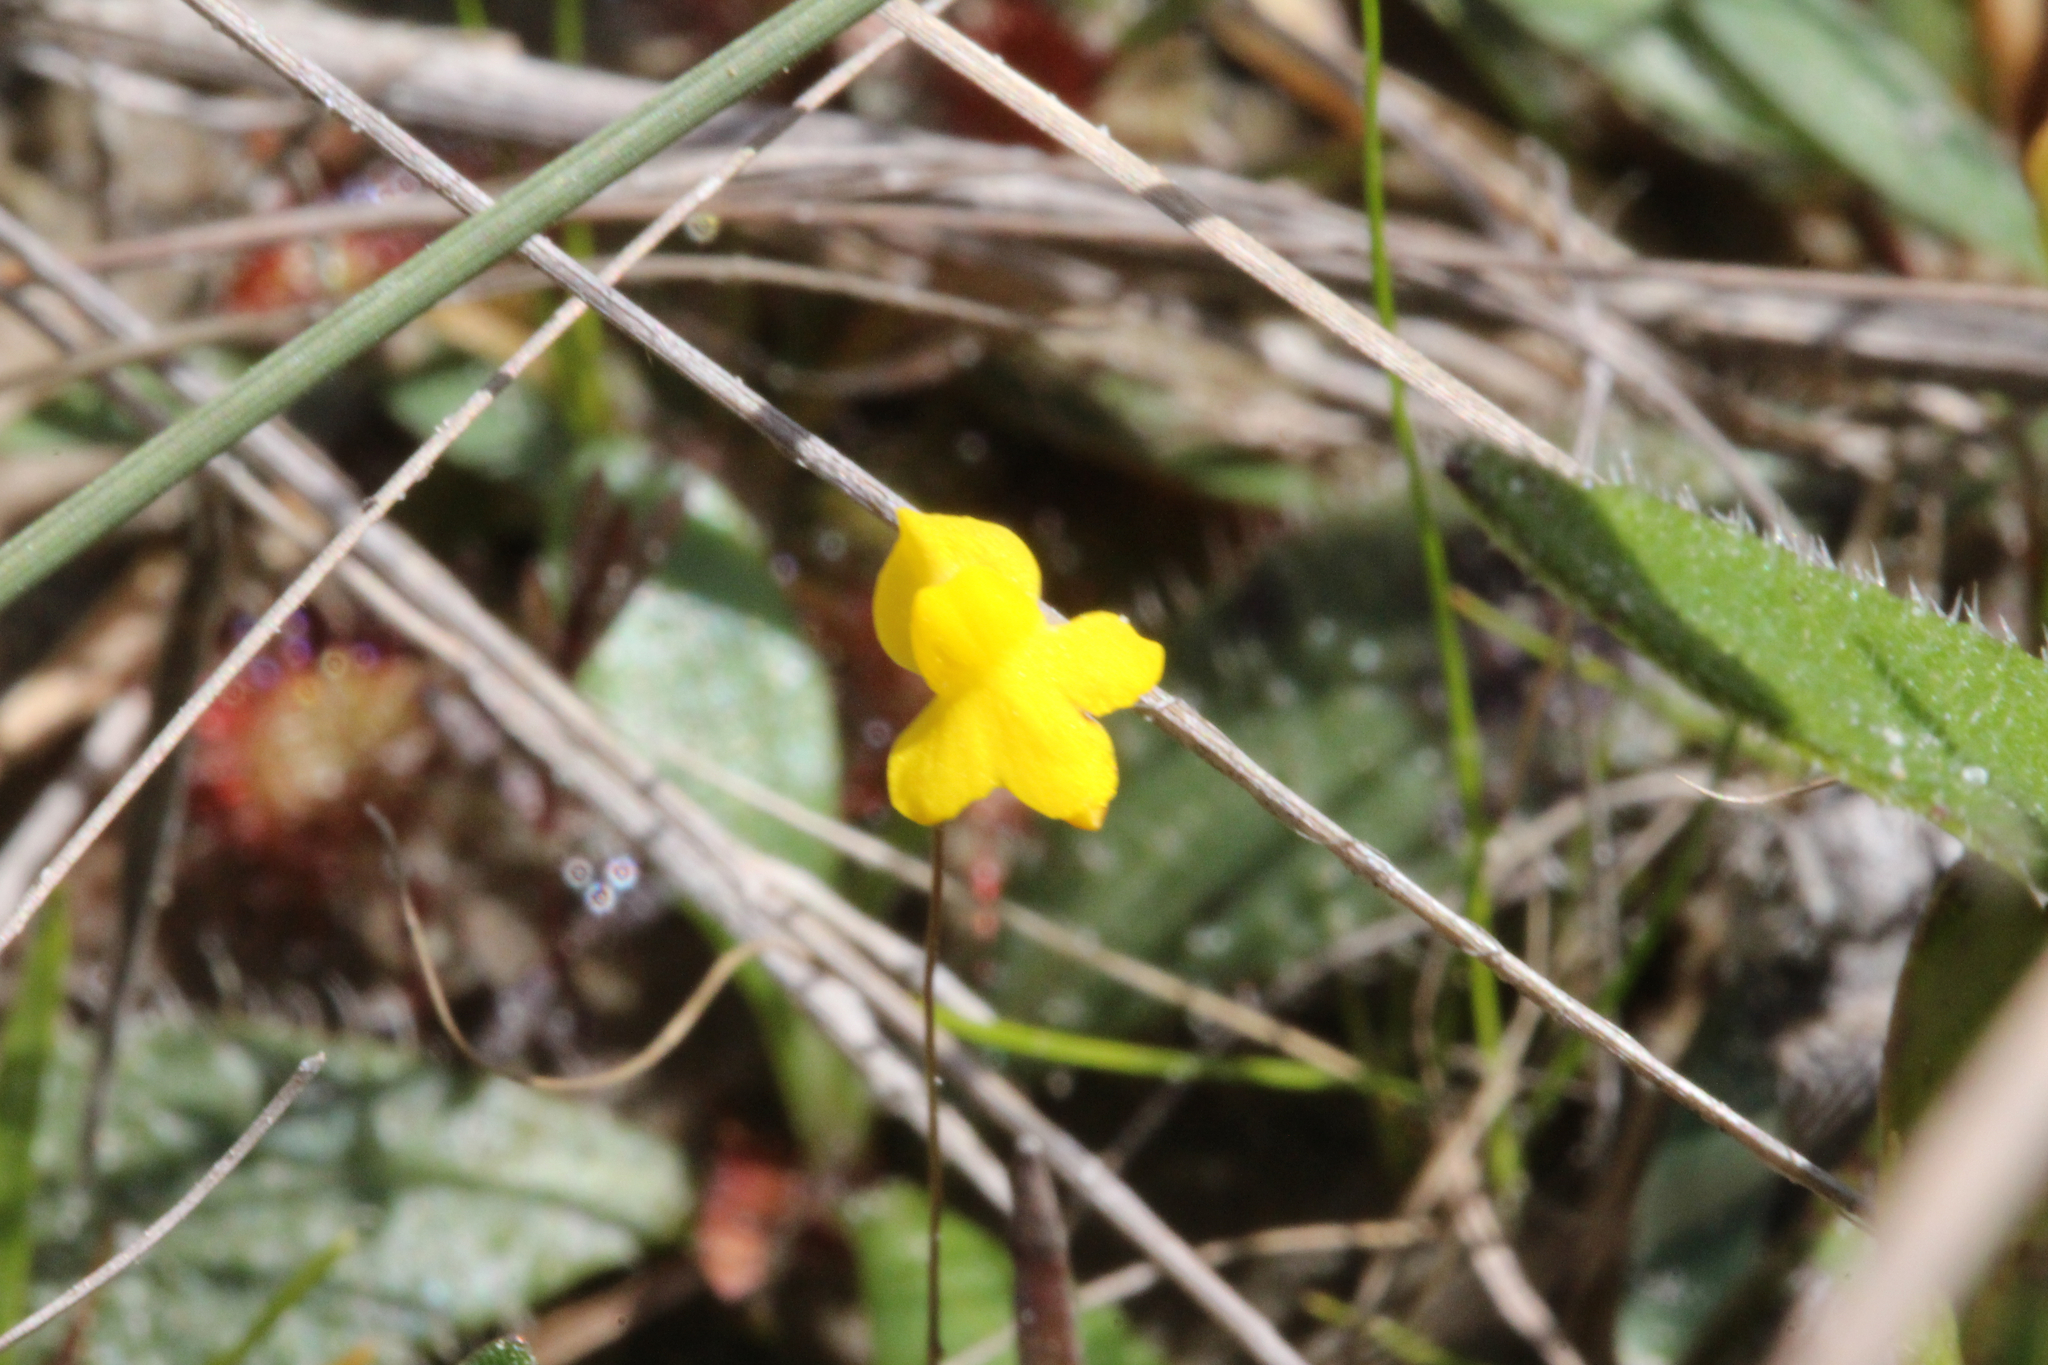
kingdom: Plantae
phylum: Tracheophyta
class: Magnoliopsida
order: Lamiales
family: Lentibulariaceae
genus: Utricularia
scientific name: Utricularia subulata
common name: Tiny bladderwort
